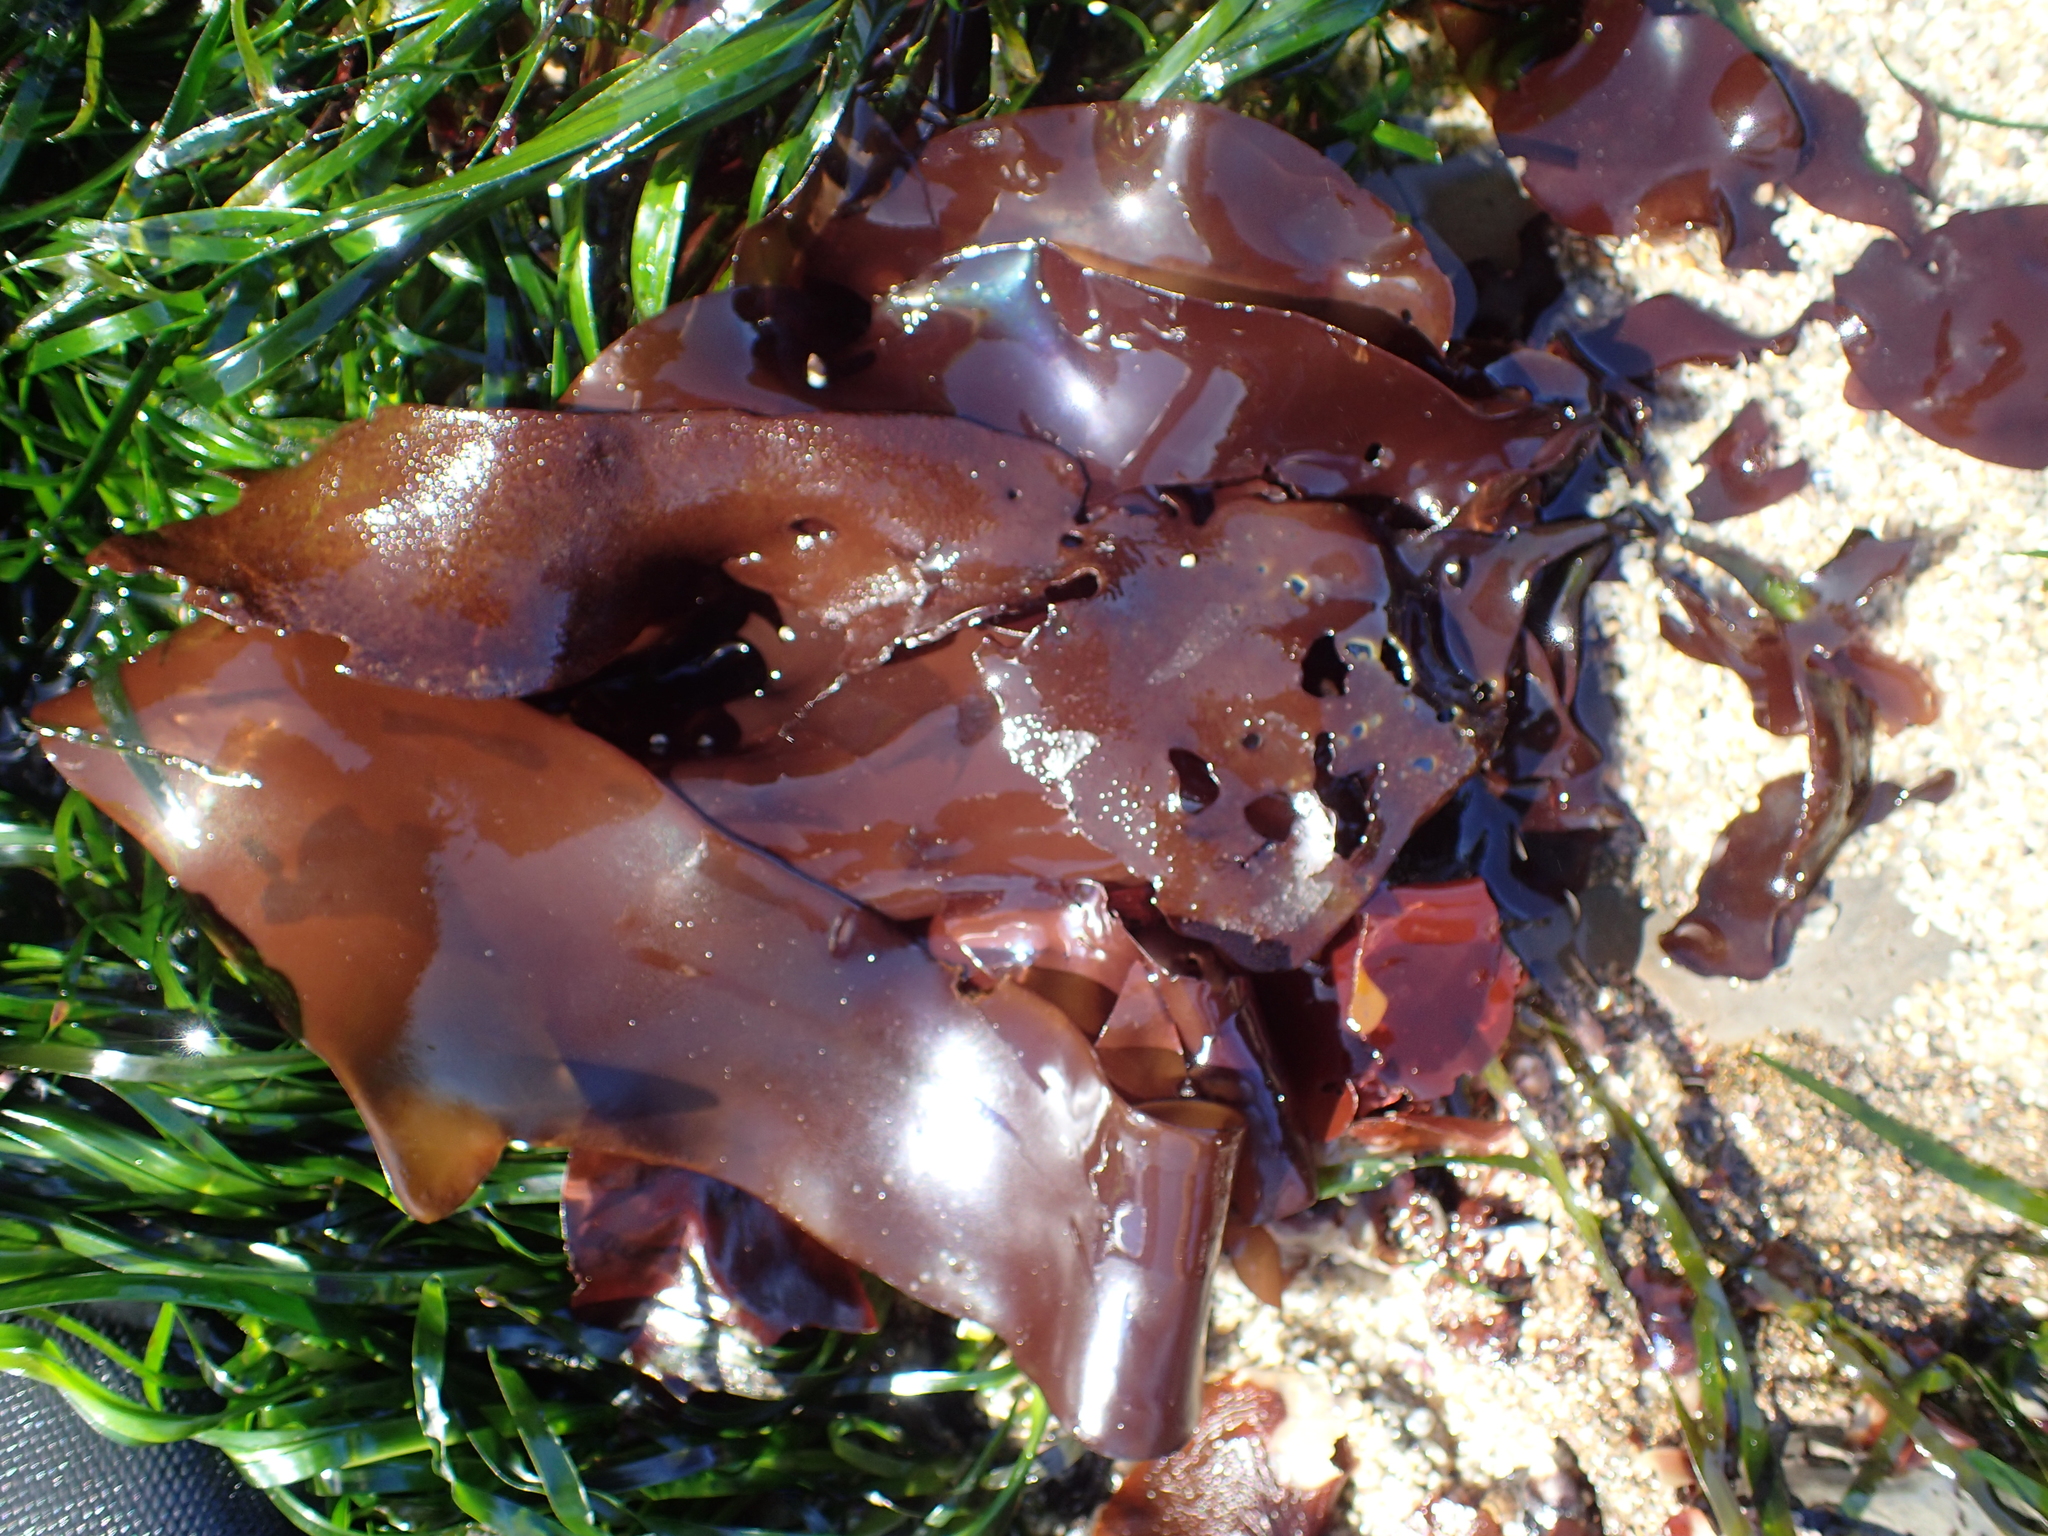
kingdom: Plantae
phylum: Rhodophyta
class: Florideophyceae
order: Gigartinales
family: Gigartinaceae
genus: Mazzaella
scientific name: Mazzaella splendens
